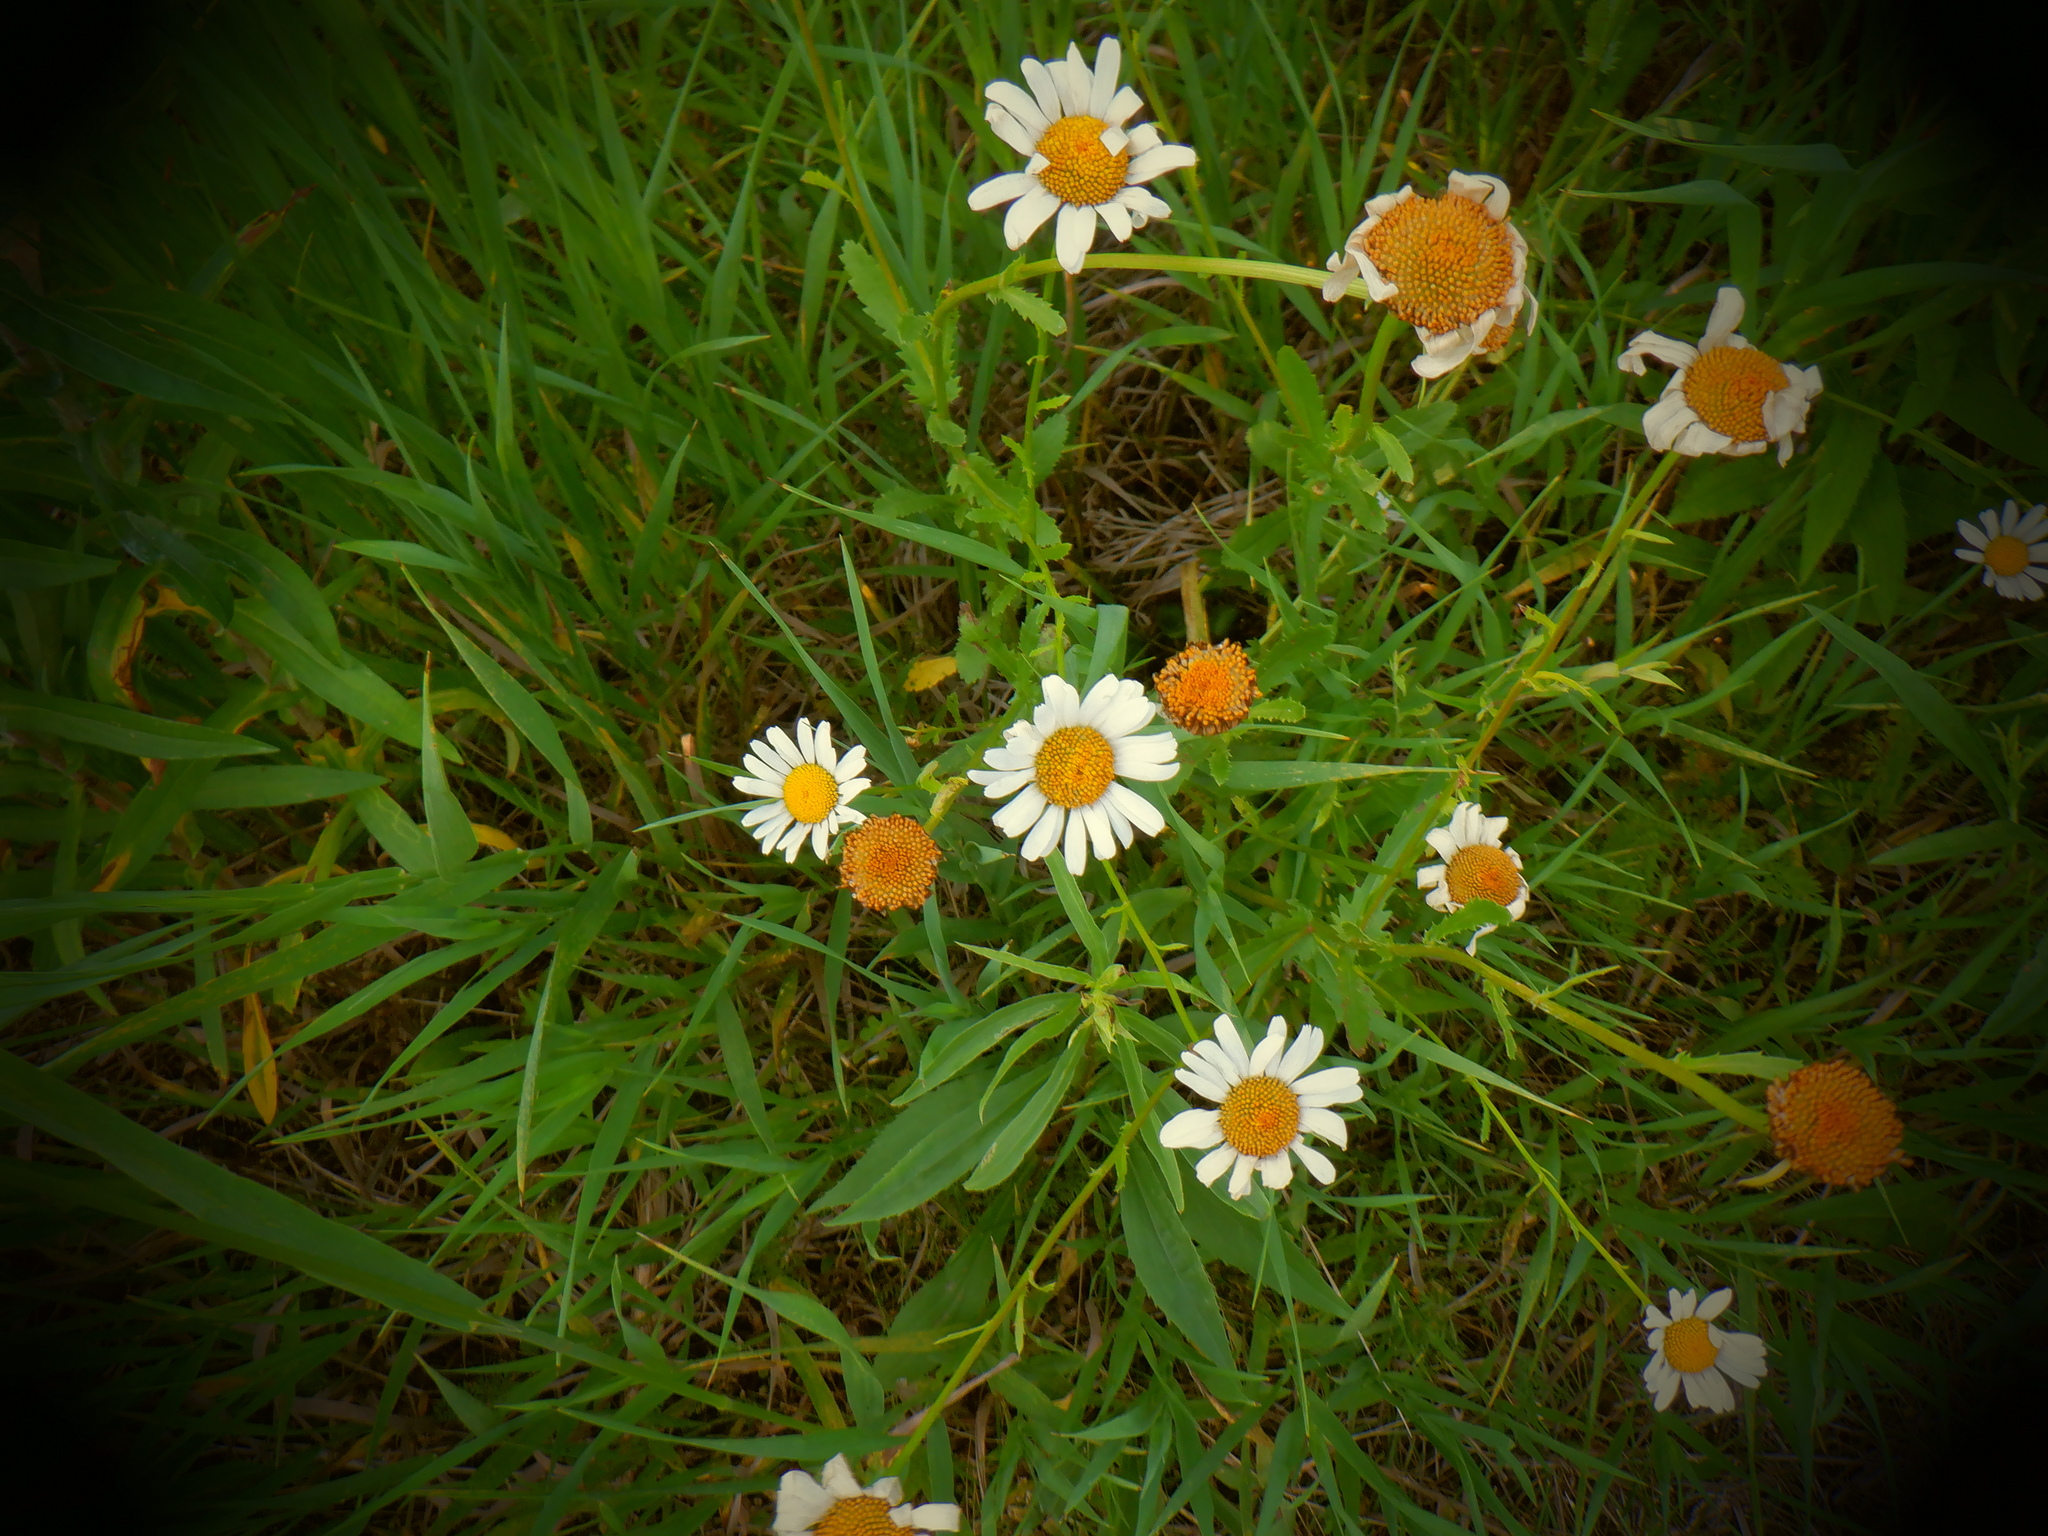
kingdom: Plantae
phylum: Tracheophyta
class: Magnoliopsida
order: Asterales
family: Asteraceae
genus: Leucanthemum
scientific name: Leucanthemum vulgare
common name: Oxeye daisy
